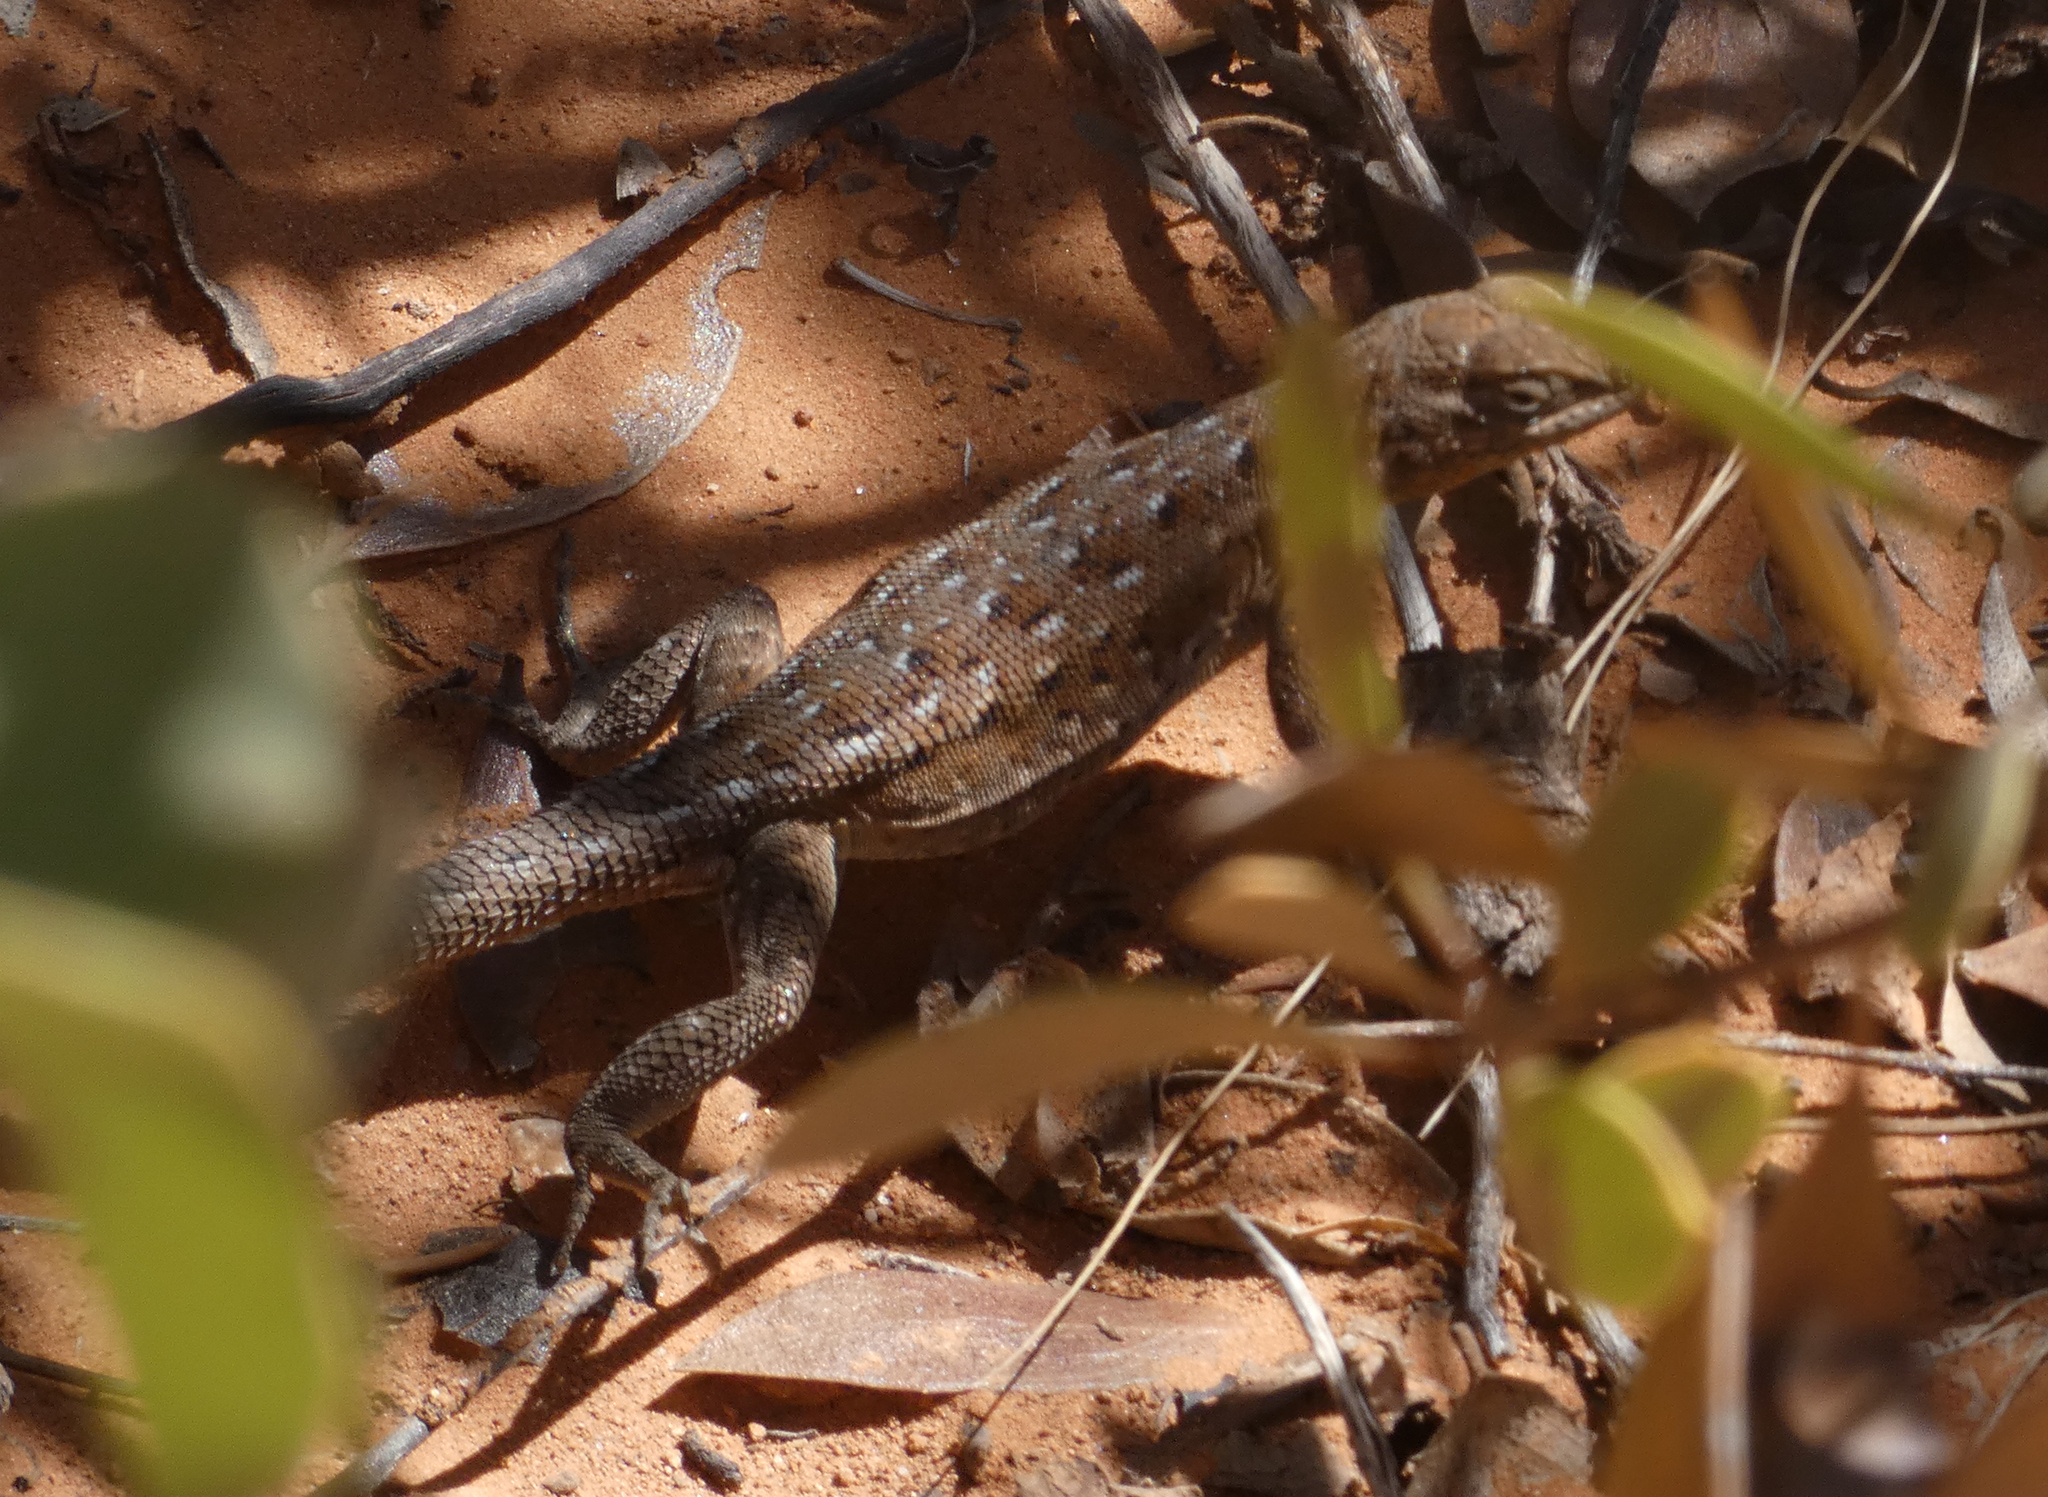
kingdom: Animalia
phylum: Chordata
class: Squamata
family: Phrynosomatidae
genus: Uta
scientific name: Uta stansburiana
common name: Side-blotched lizard
